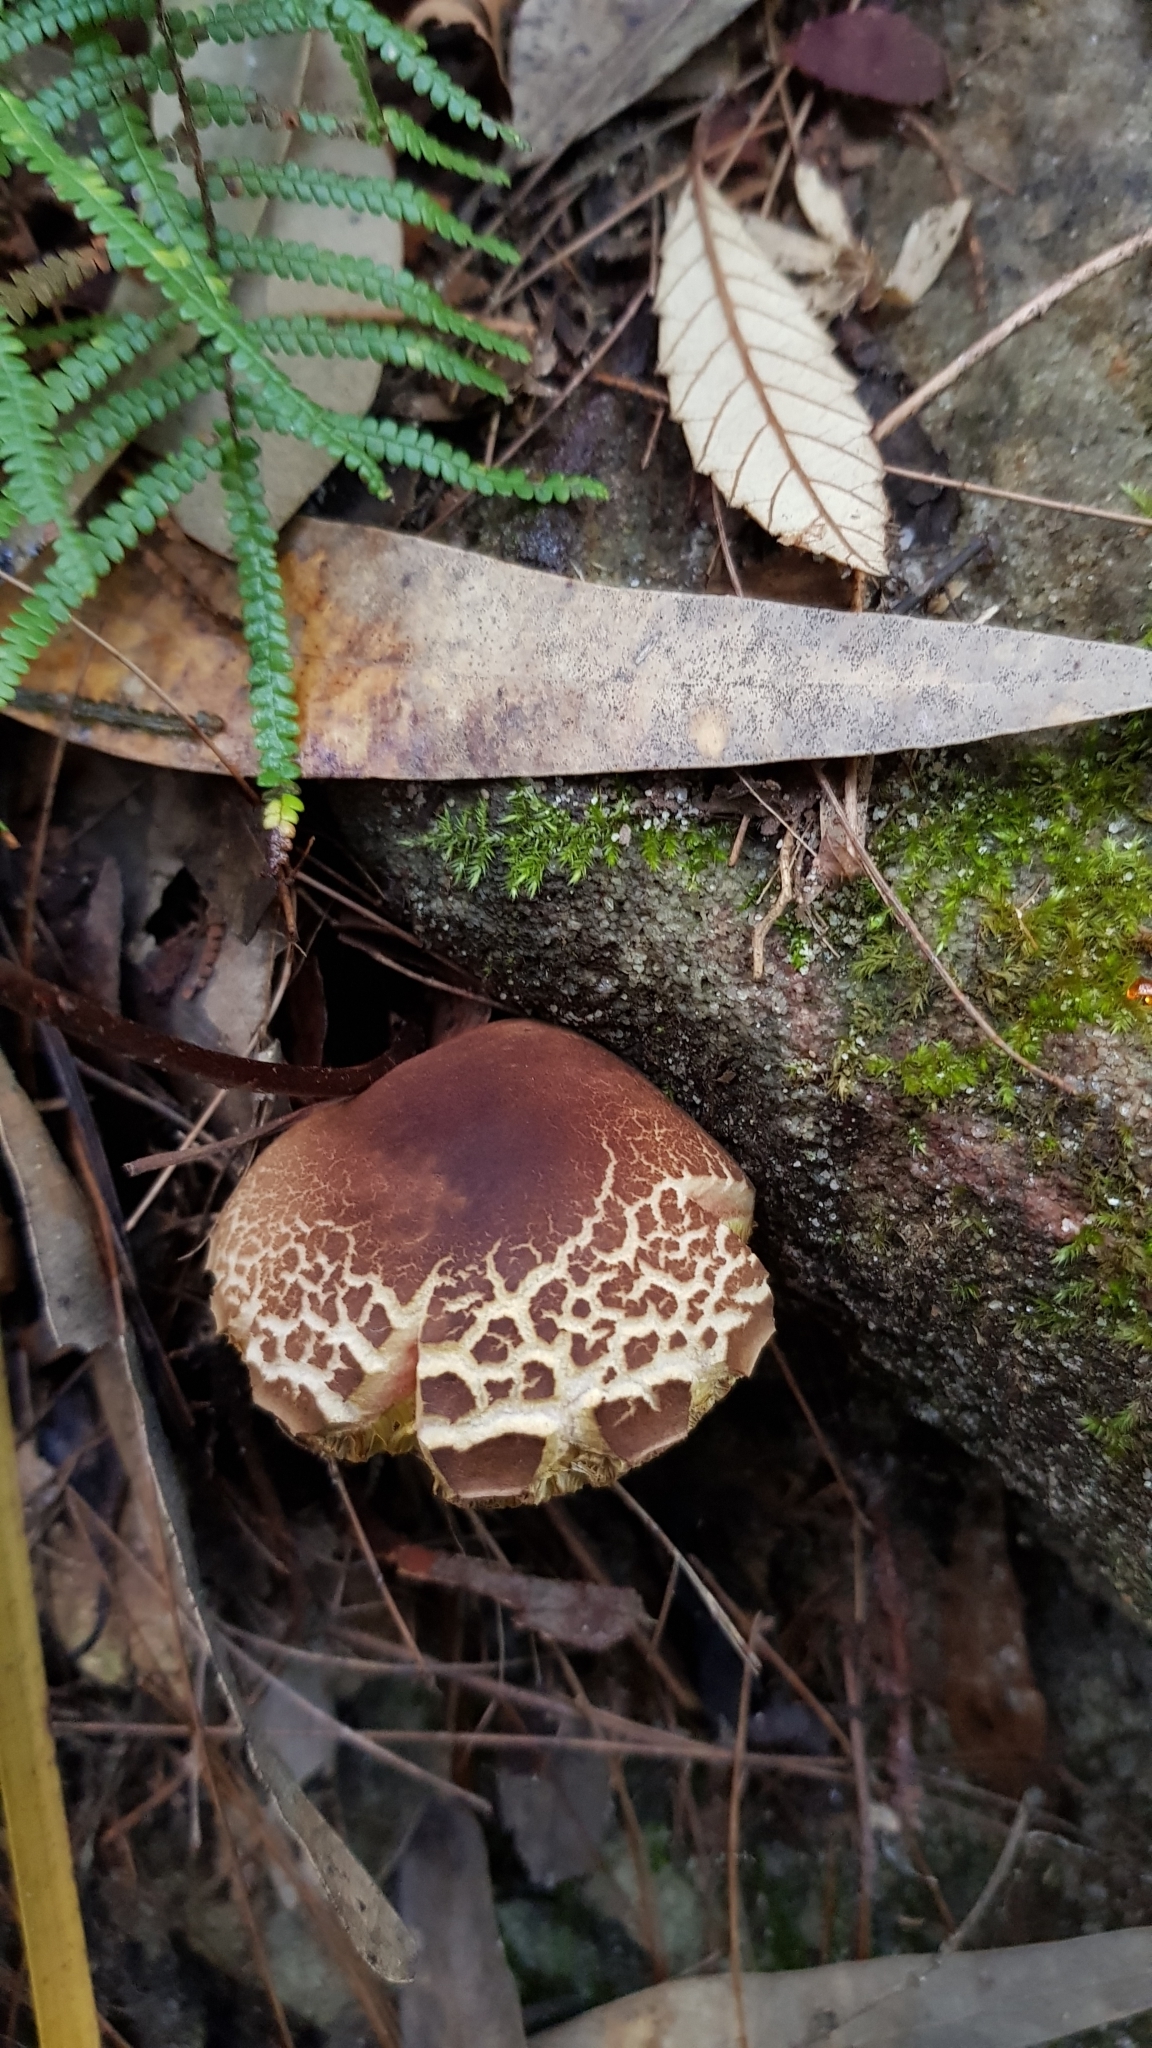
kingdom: Fungi
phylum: Basidiomycota
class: Agaricomycetes
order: Boletales
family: Boletaceae
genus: Boletellus
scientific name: Boletellus badiovinosus
